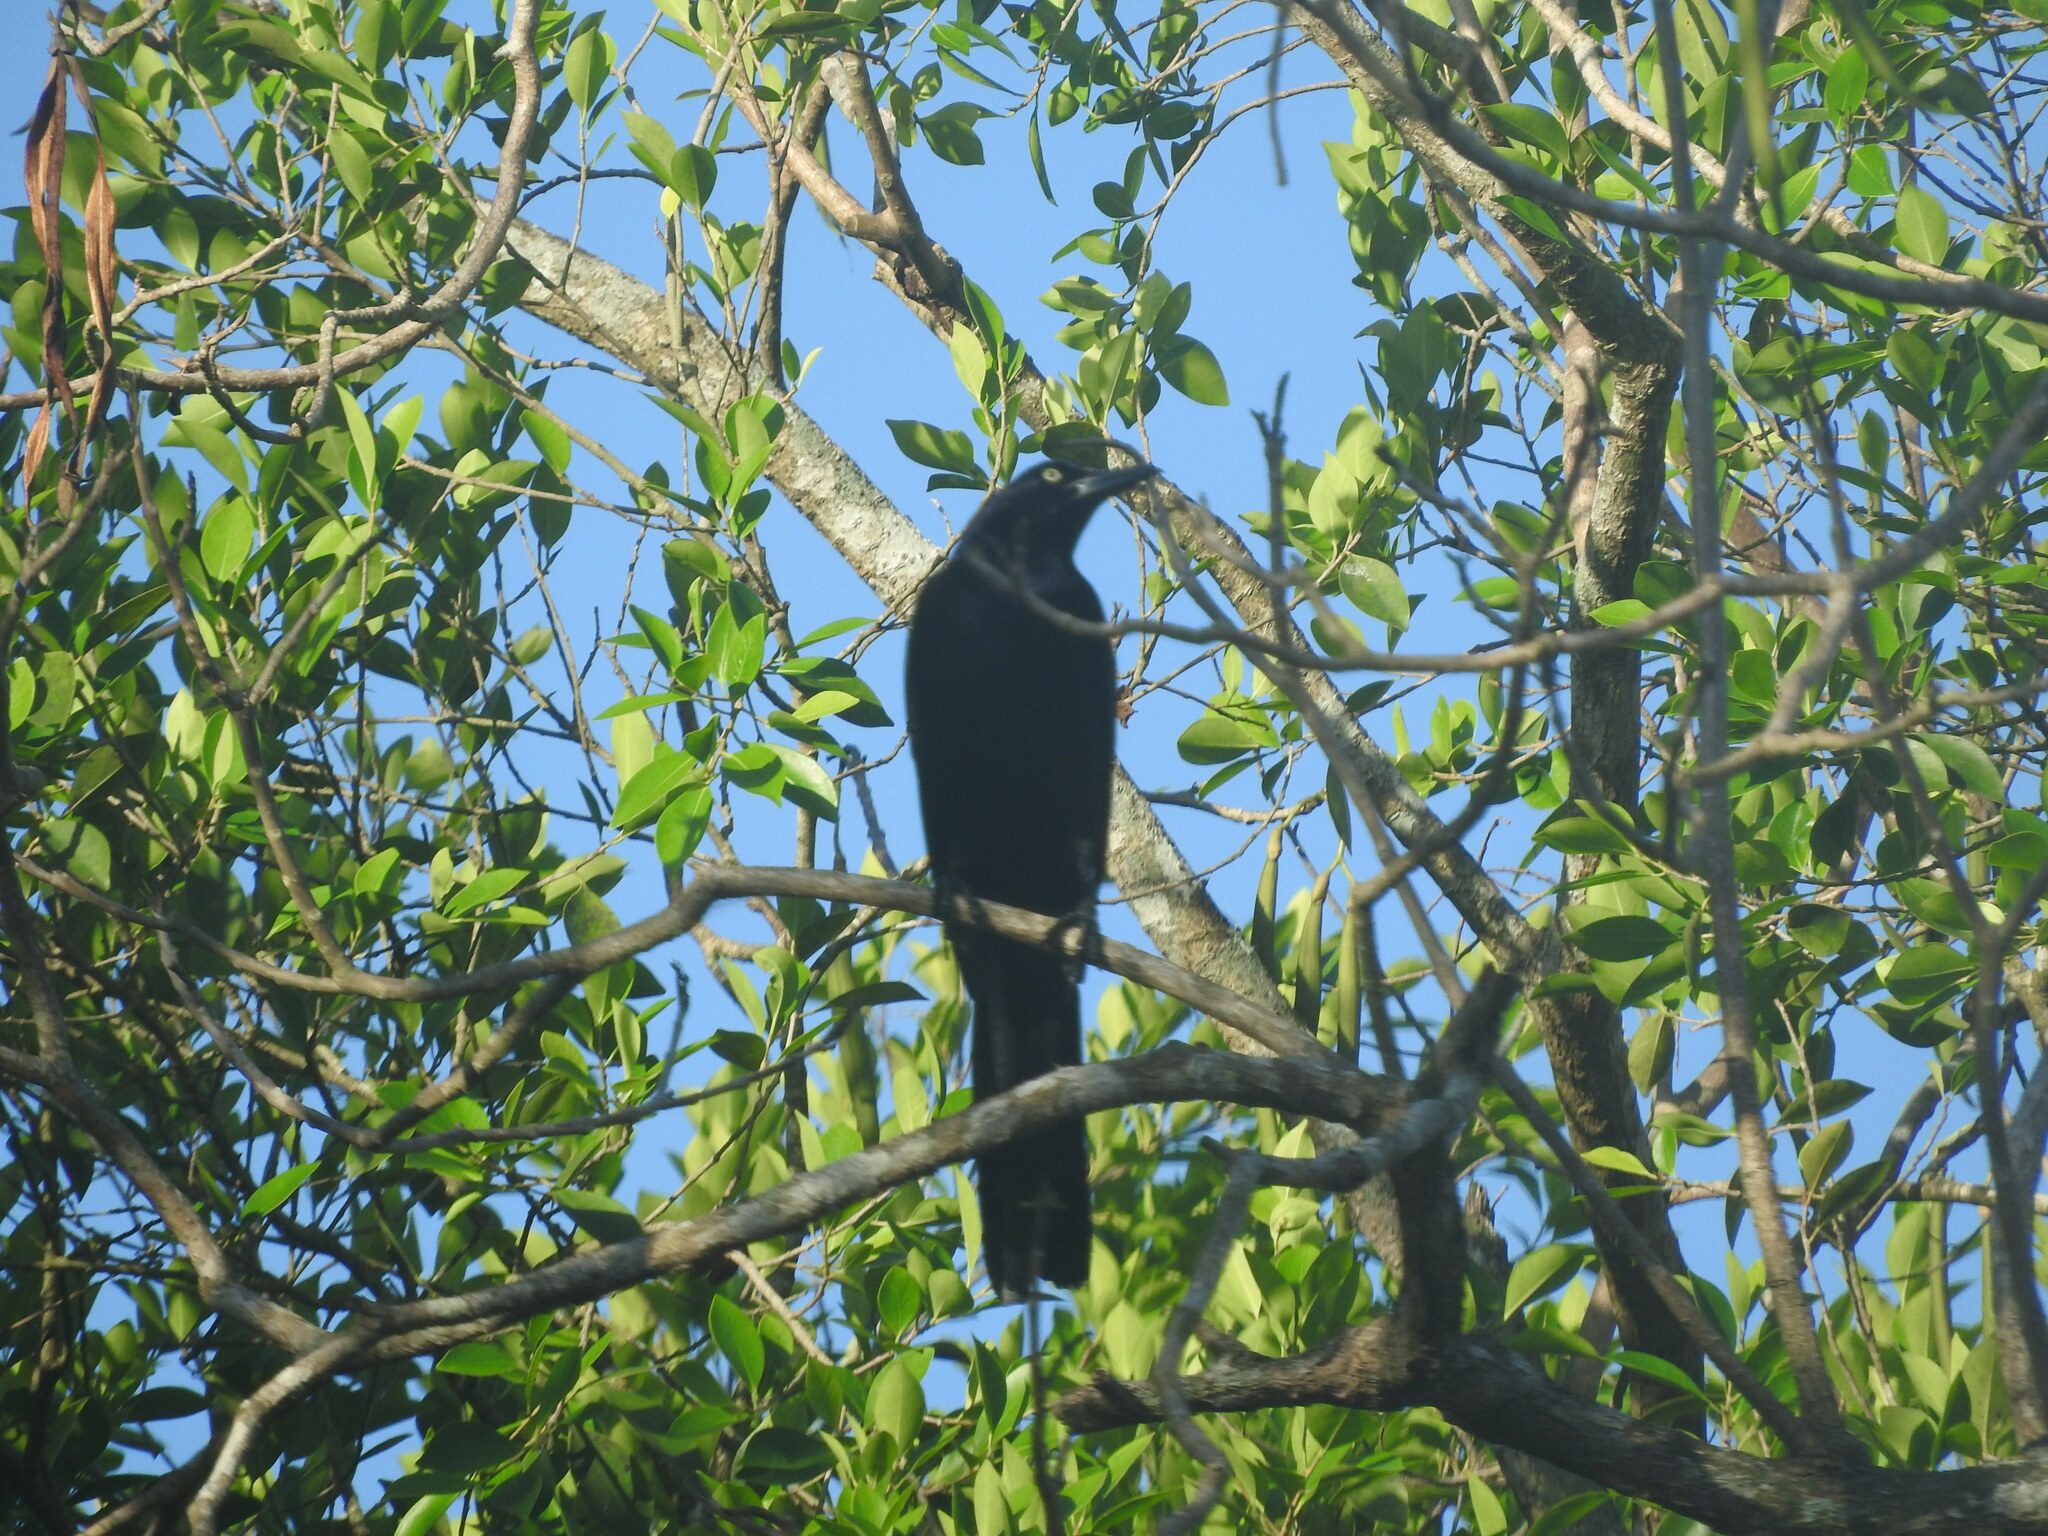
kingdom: Animalia
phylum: Chordata
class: Aves
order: Passeriformes
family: Icteridae
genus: Quiscalus
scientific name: Quiscalus mexicanus
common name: Great-tailed grackle
